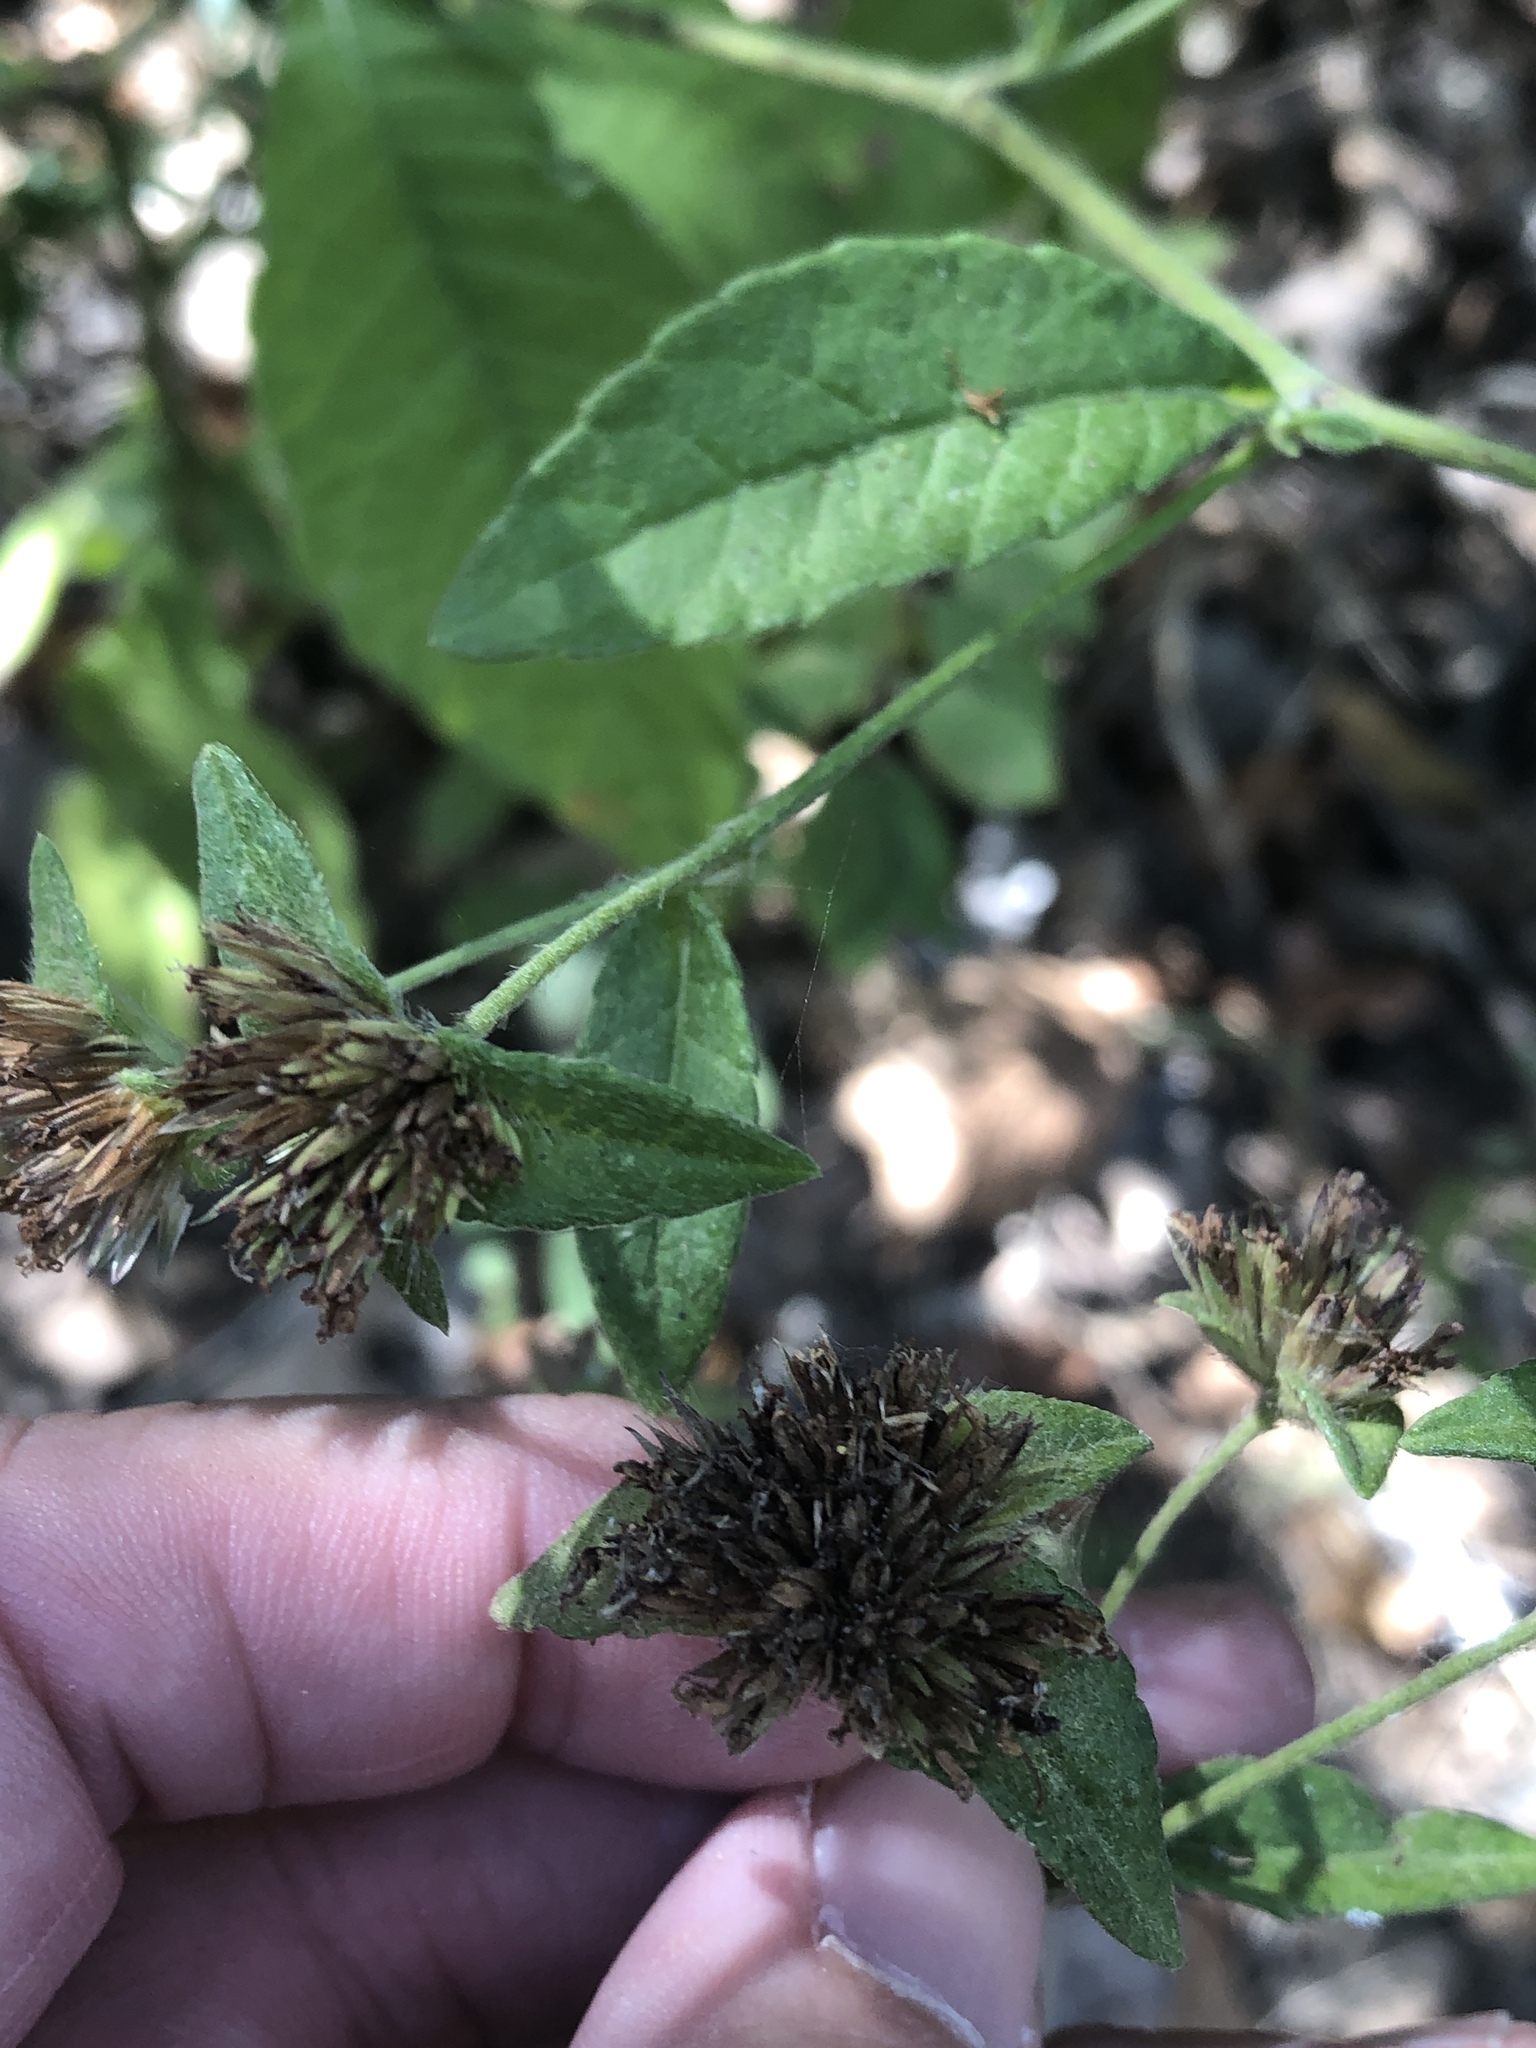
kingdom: Plantae
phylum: Tracheophyta
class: Magnoliopsida
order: Asterales
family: Asteraceae
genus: Elephantopus
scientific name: Elephantopus carolinianus
